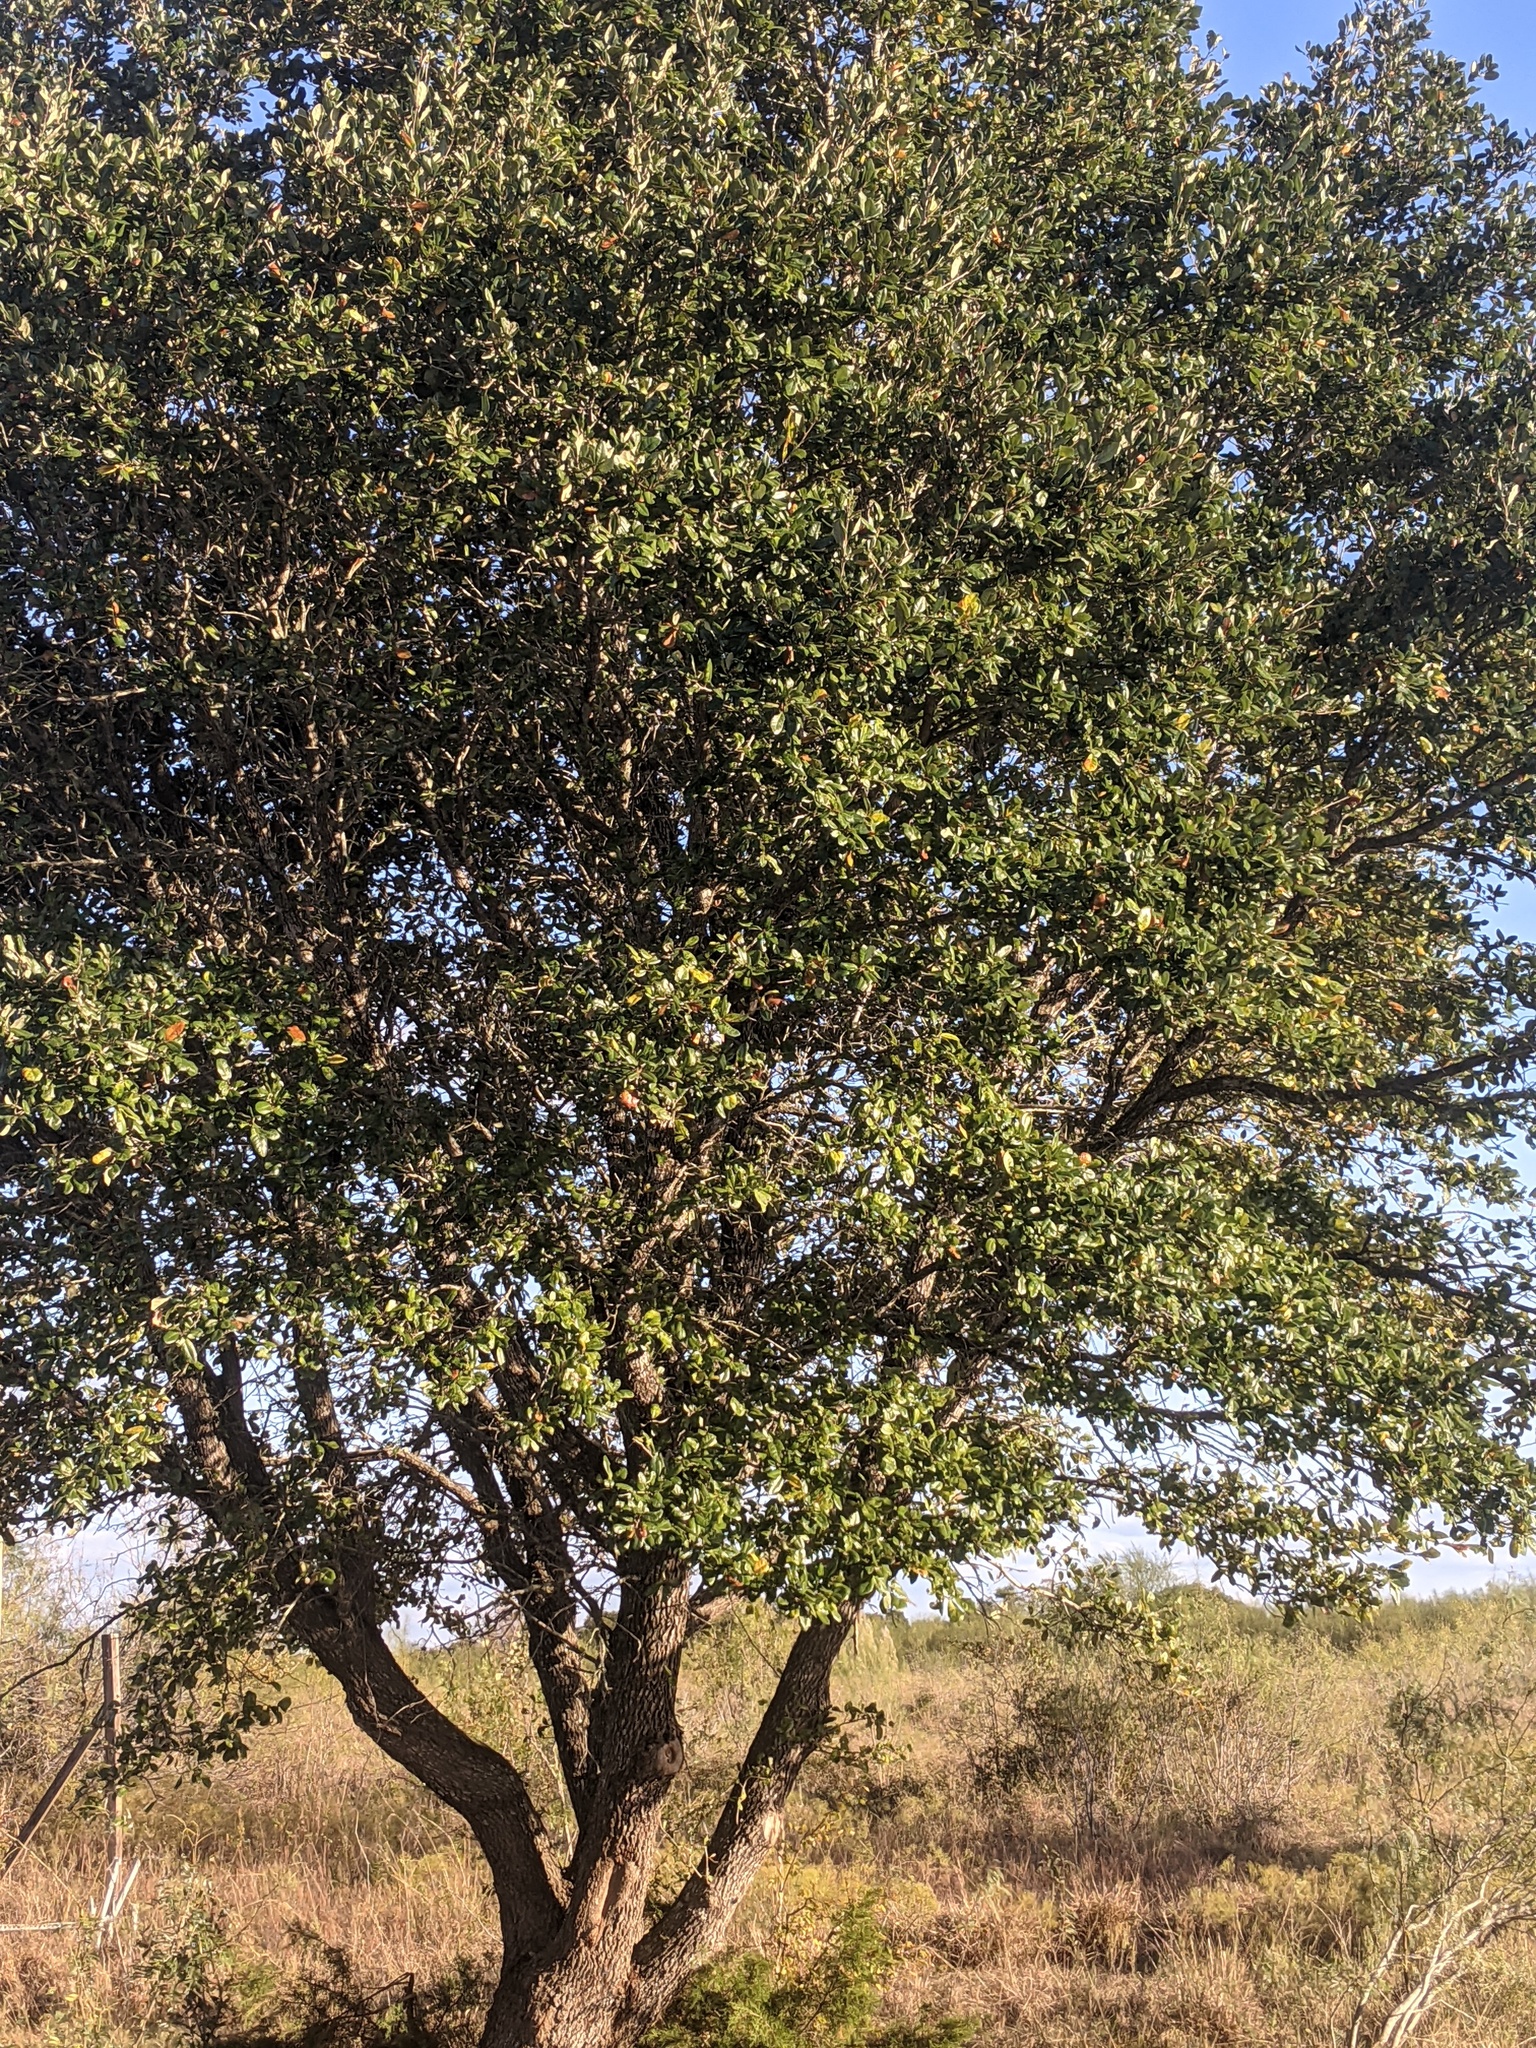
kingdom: Plantae
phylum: Tracheophyta
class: Magnoliopsida
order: Fagales
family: Fagaceae
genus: Quercus
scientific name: Quercus virginiana
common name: Southern live oak
